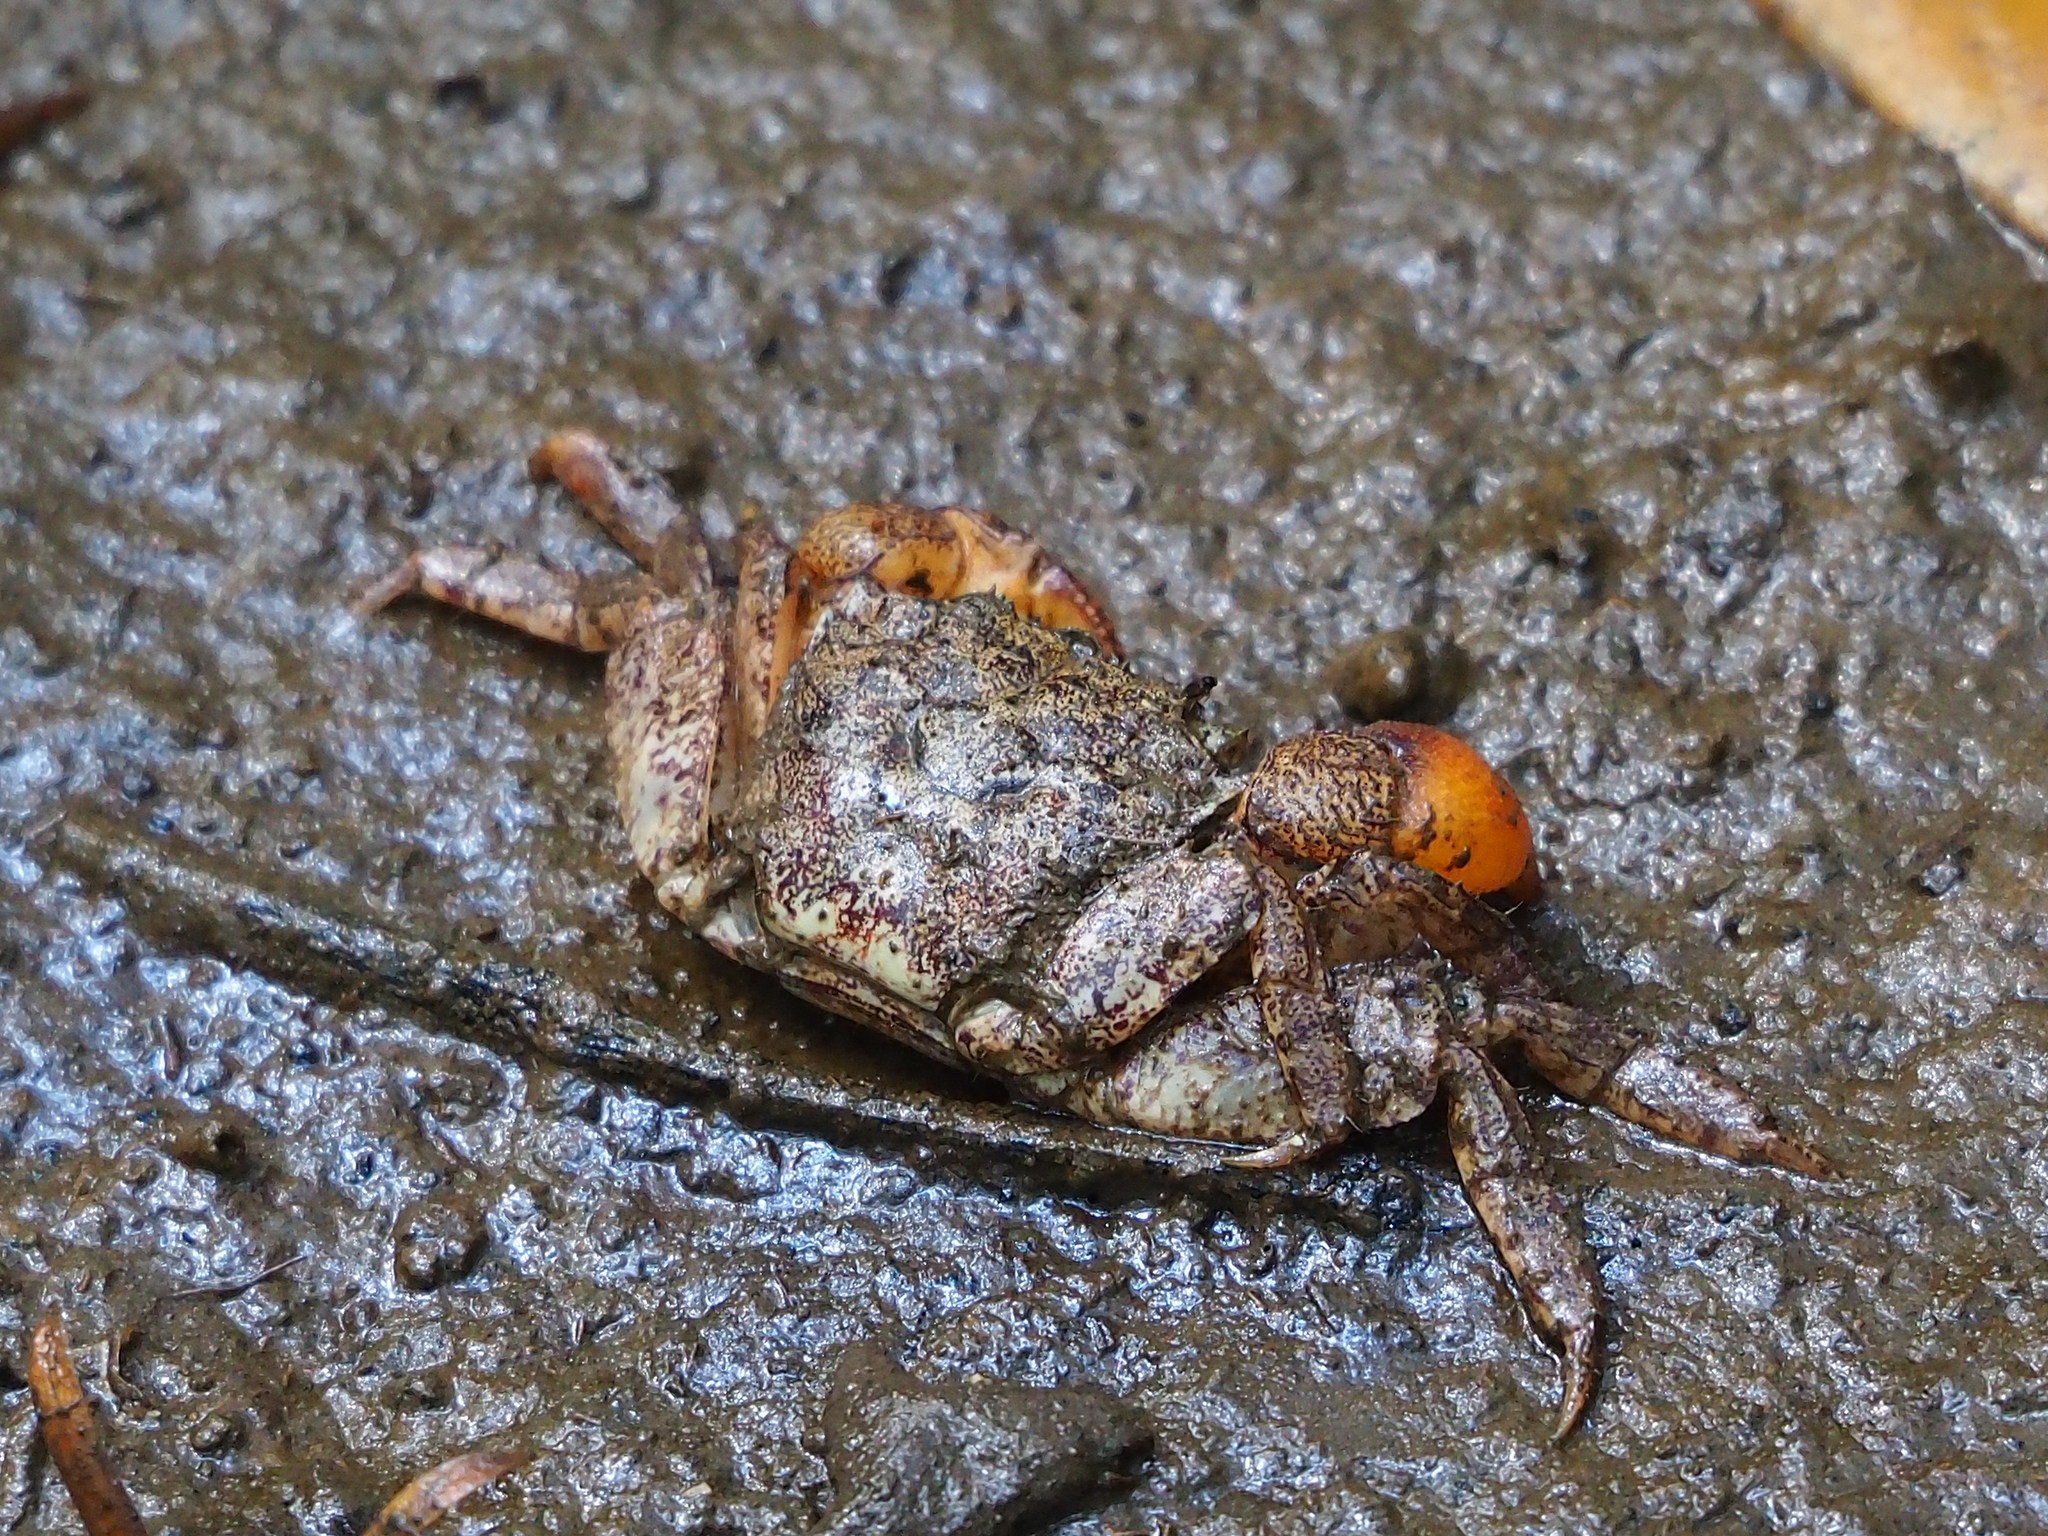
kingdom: Animalia
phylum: Arthropoda
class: Malacostraca
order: Decapoda
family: Sesarmidae
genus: Parasesarma
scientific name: Parasesarma bidens
